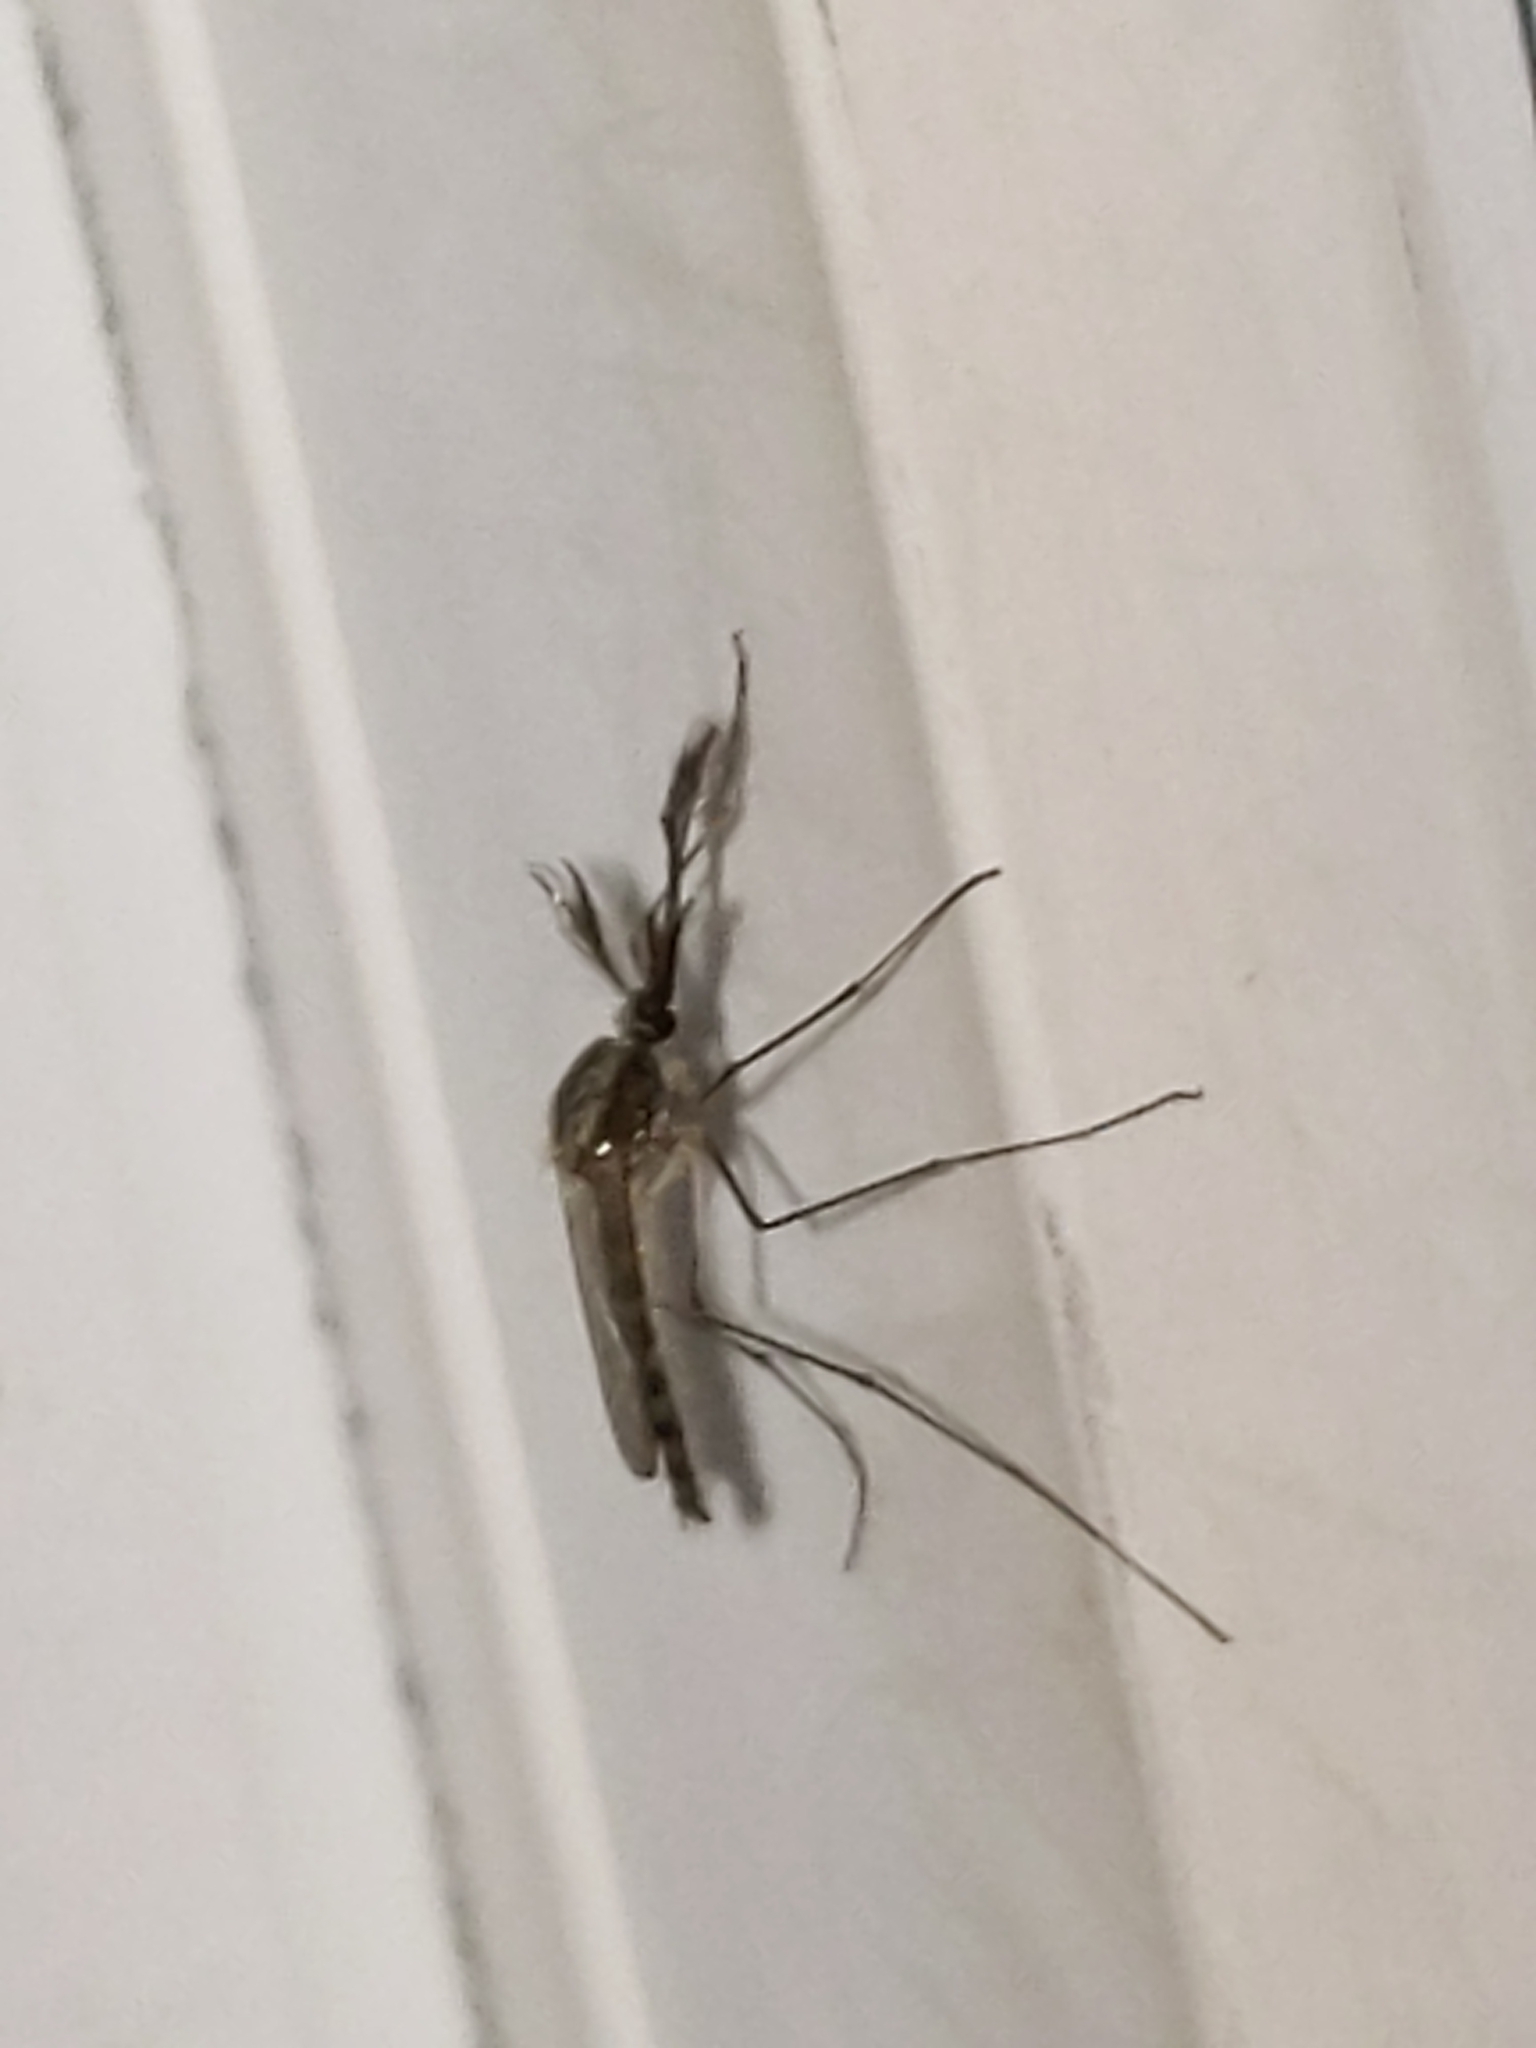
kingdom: Animalia
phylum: Arthropoda
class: Insecta
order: Diptera
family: Culicidae
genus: Aedes
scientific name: Aedes trivittatus
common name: Plains floodwater mosquito
